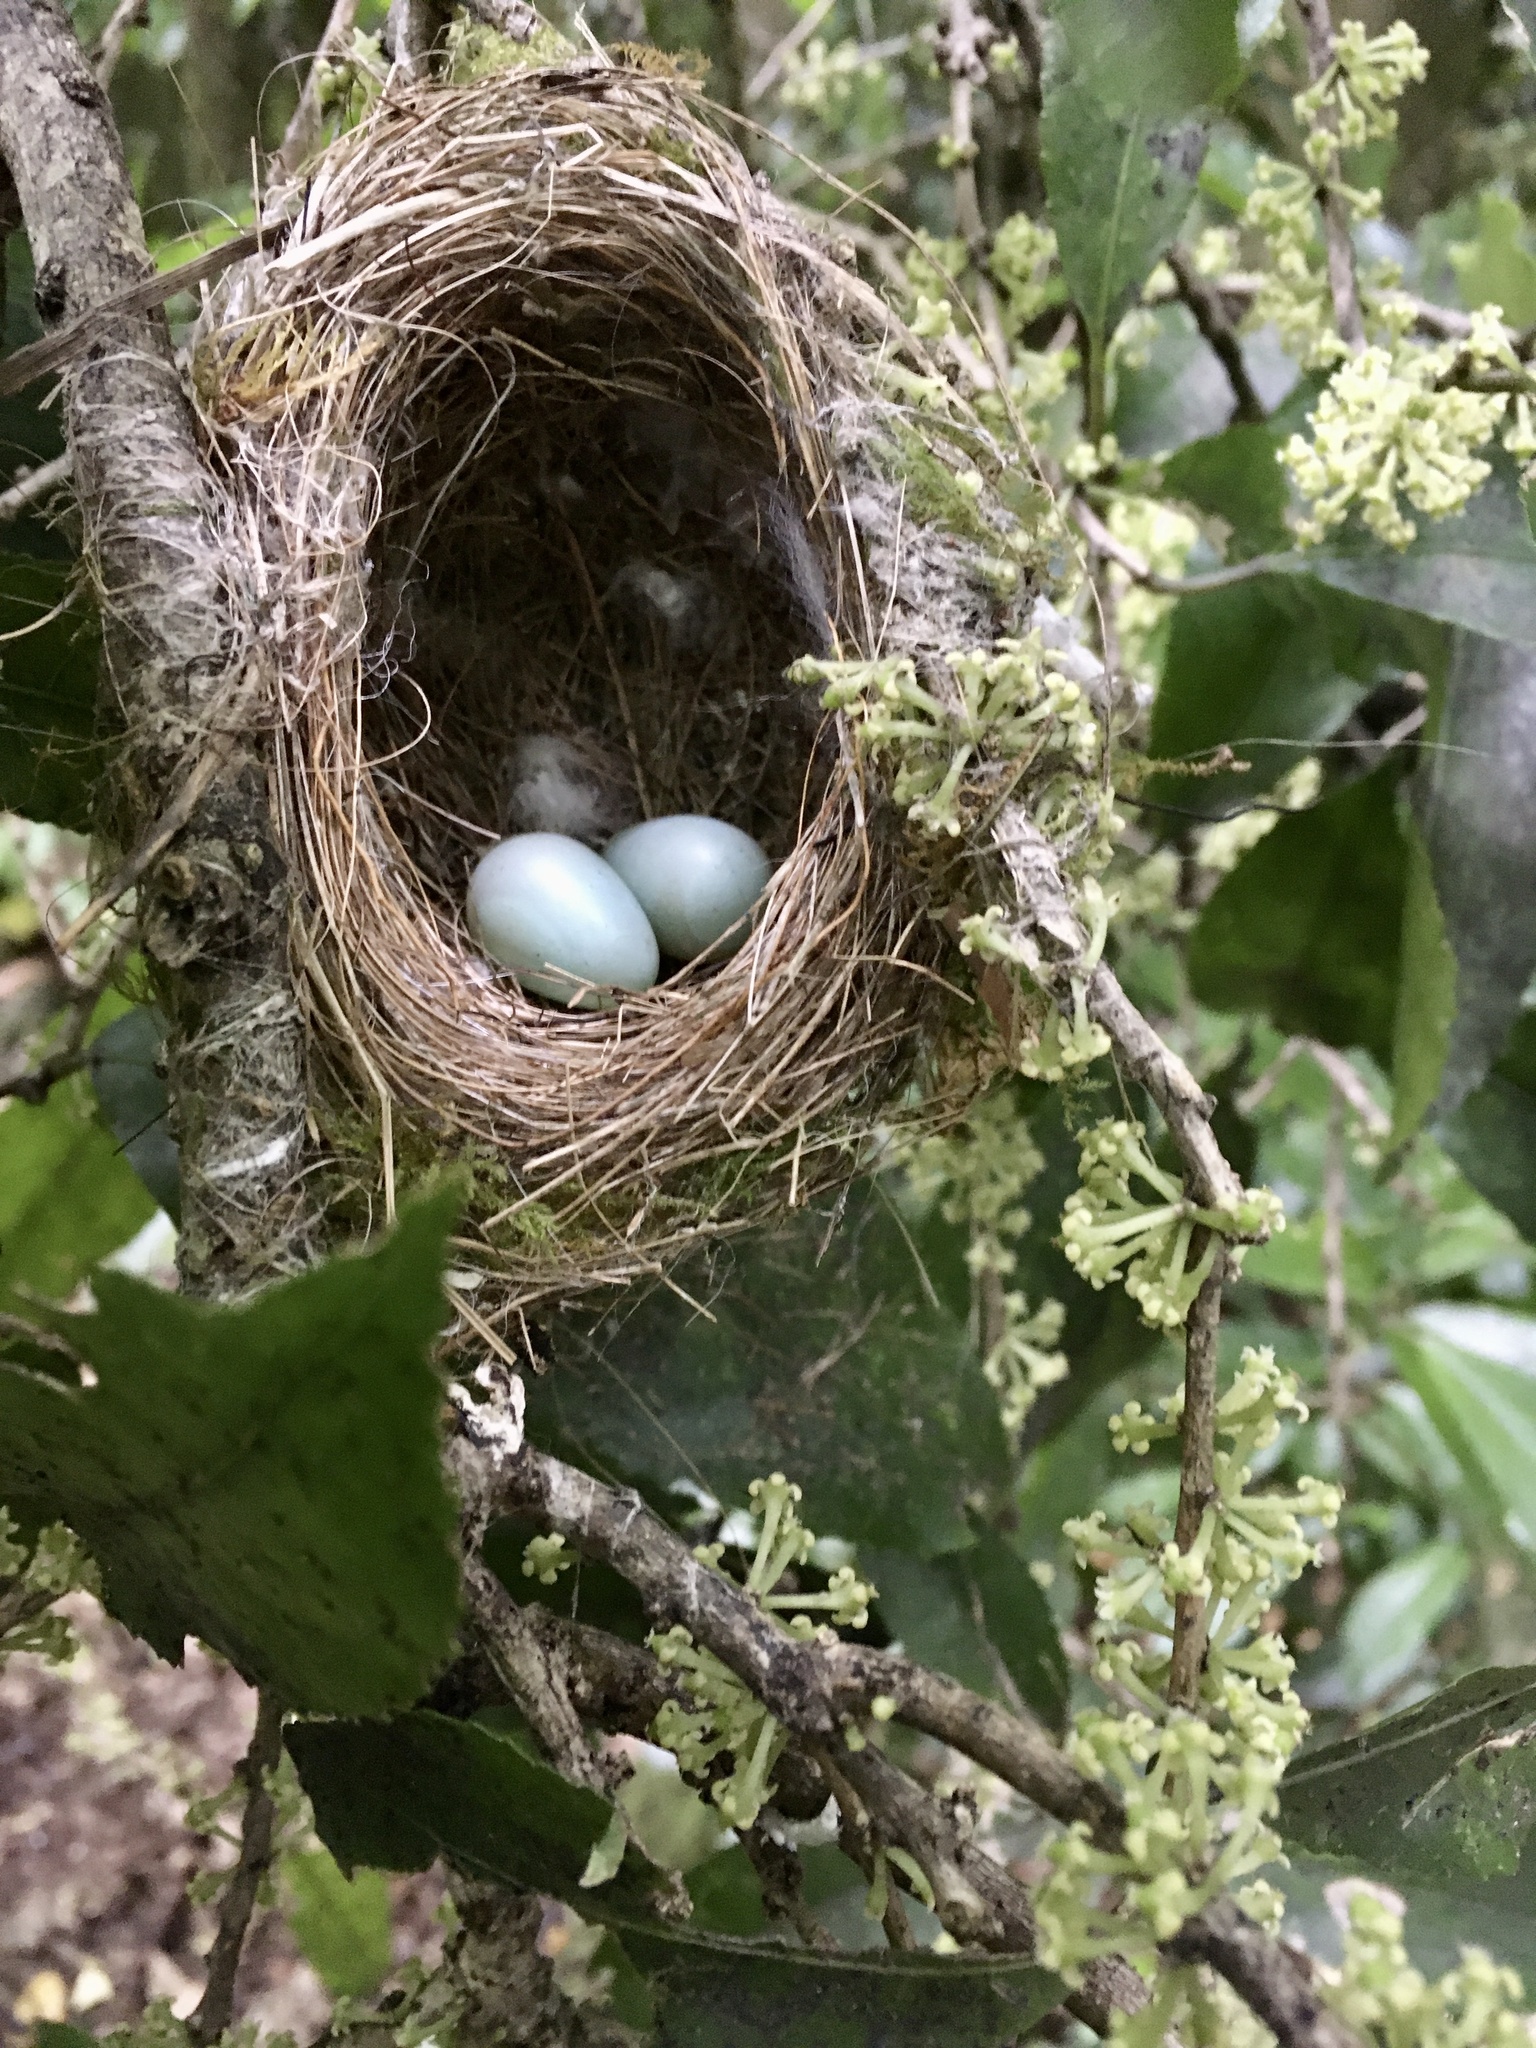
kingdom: Animalia
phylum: Chordata
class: Aves
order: Passeriformes
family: Zosteropidae
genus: Zosterops
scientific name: Zosterops lateralis
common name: Silvereye
